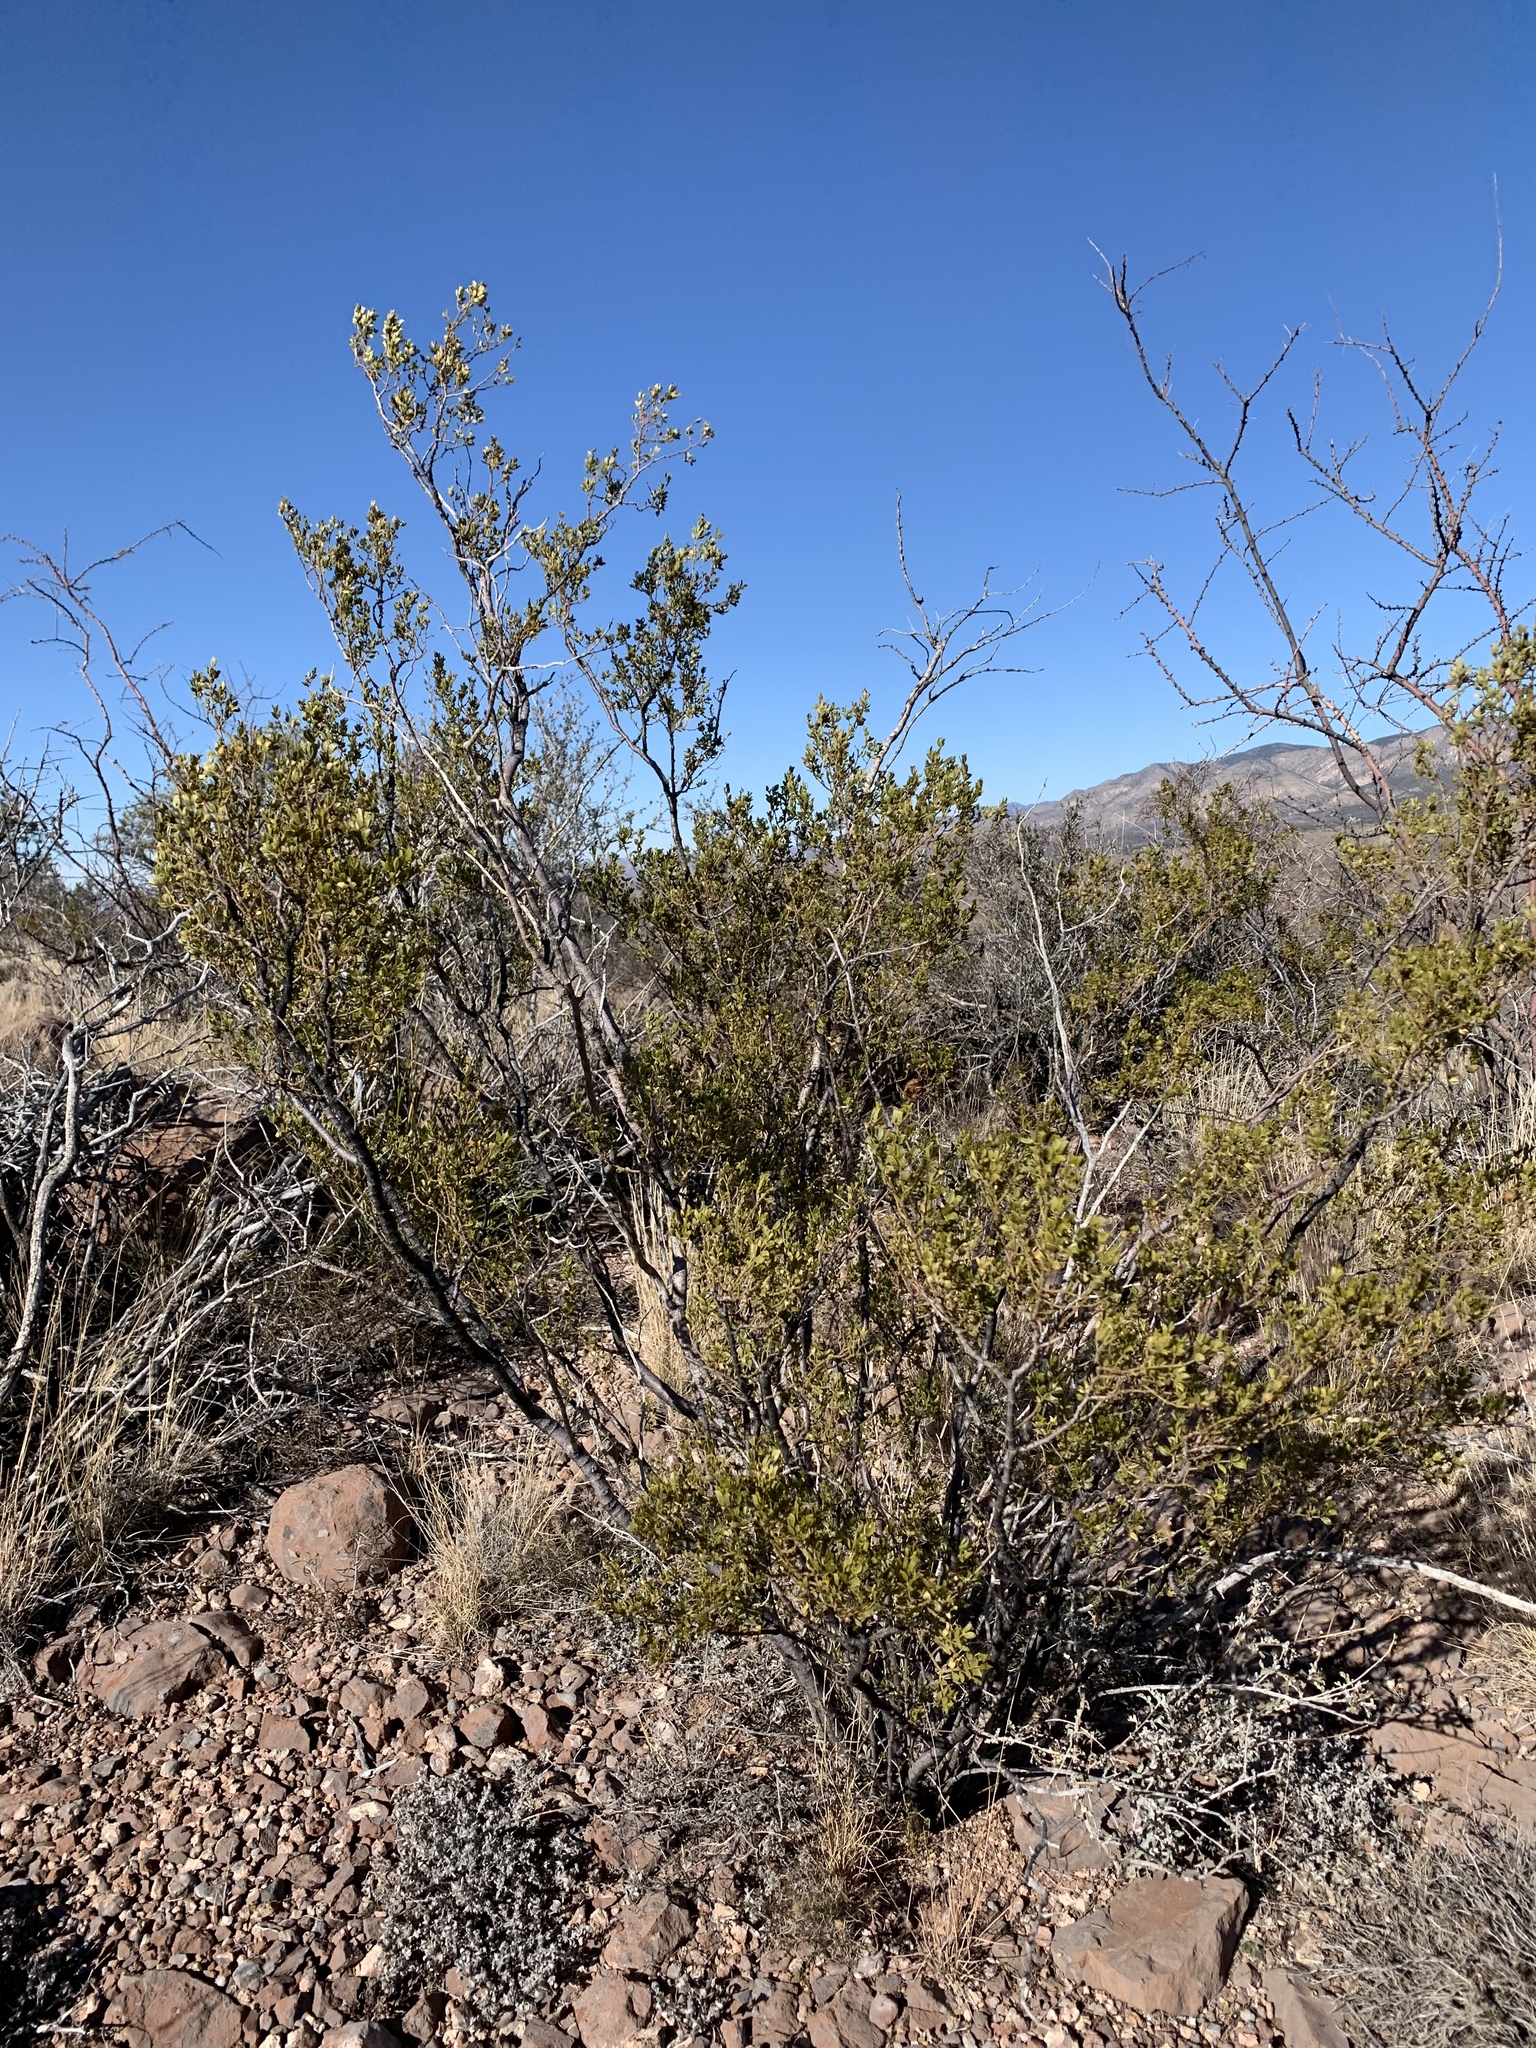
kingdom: Plantae
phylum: Tracheophyta
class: Magnoliopsida
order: Zygophyllales
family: Zygophyllaceae
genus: Larrea
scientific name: Larrea tridentata
